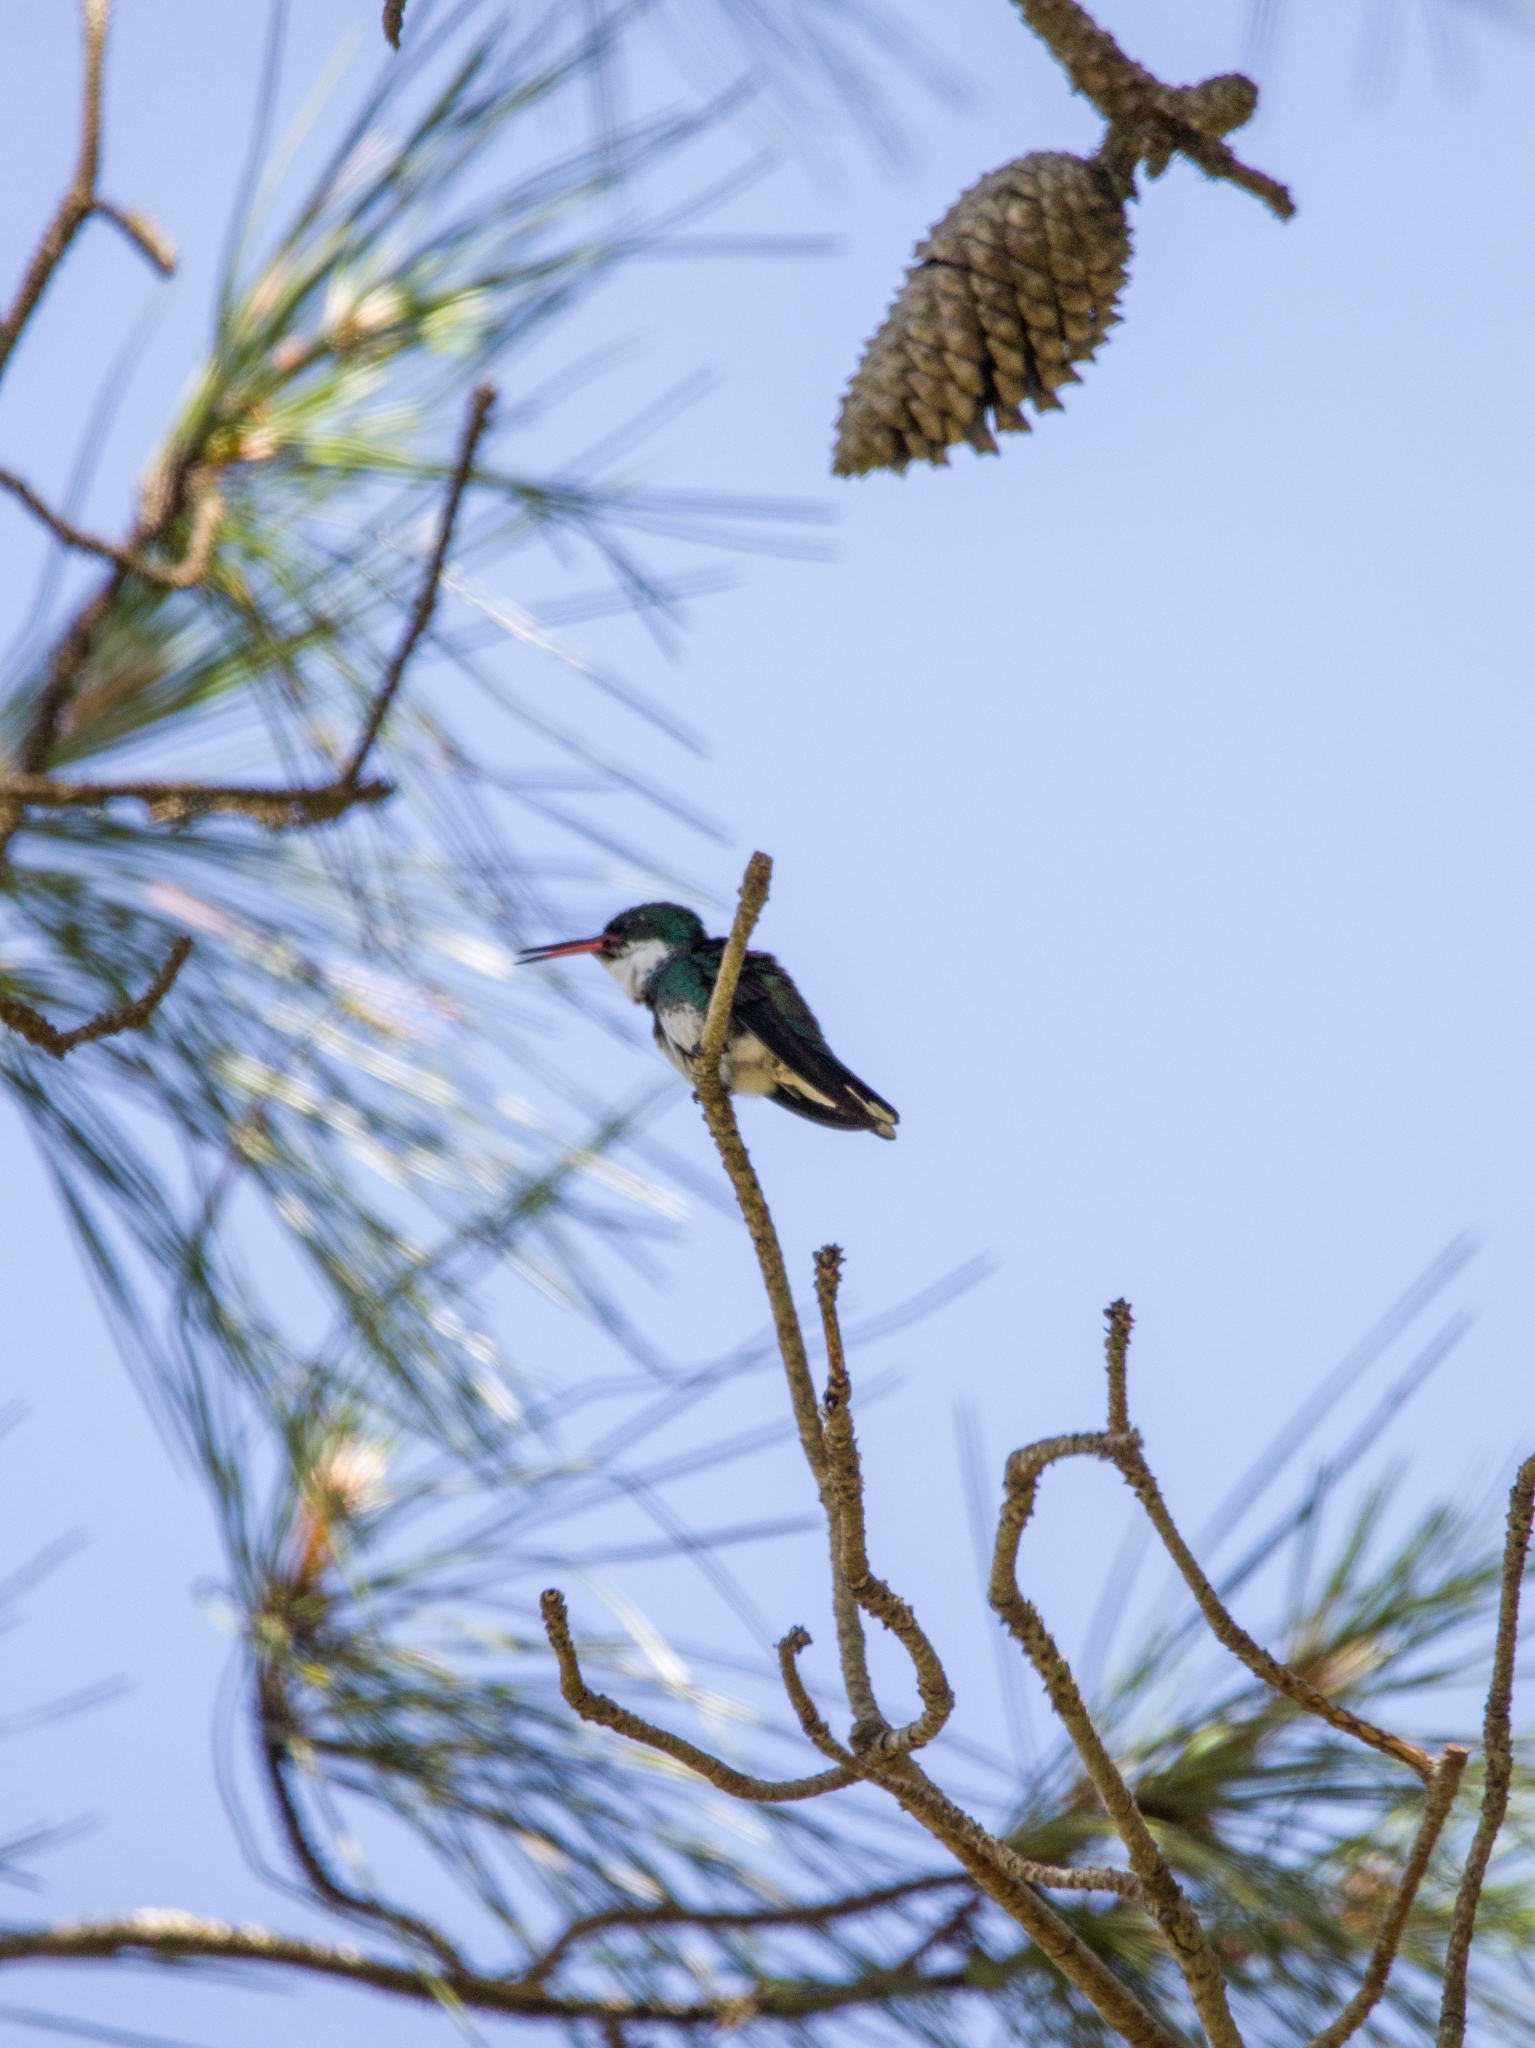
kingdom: Animalia
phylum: Chordata
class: Aves
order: Apodiformes
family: Trochilidae
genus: Leucochloris
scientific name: Leucochloris albicollis
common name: White-throated hummingbird
